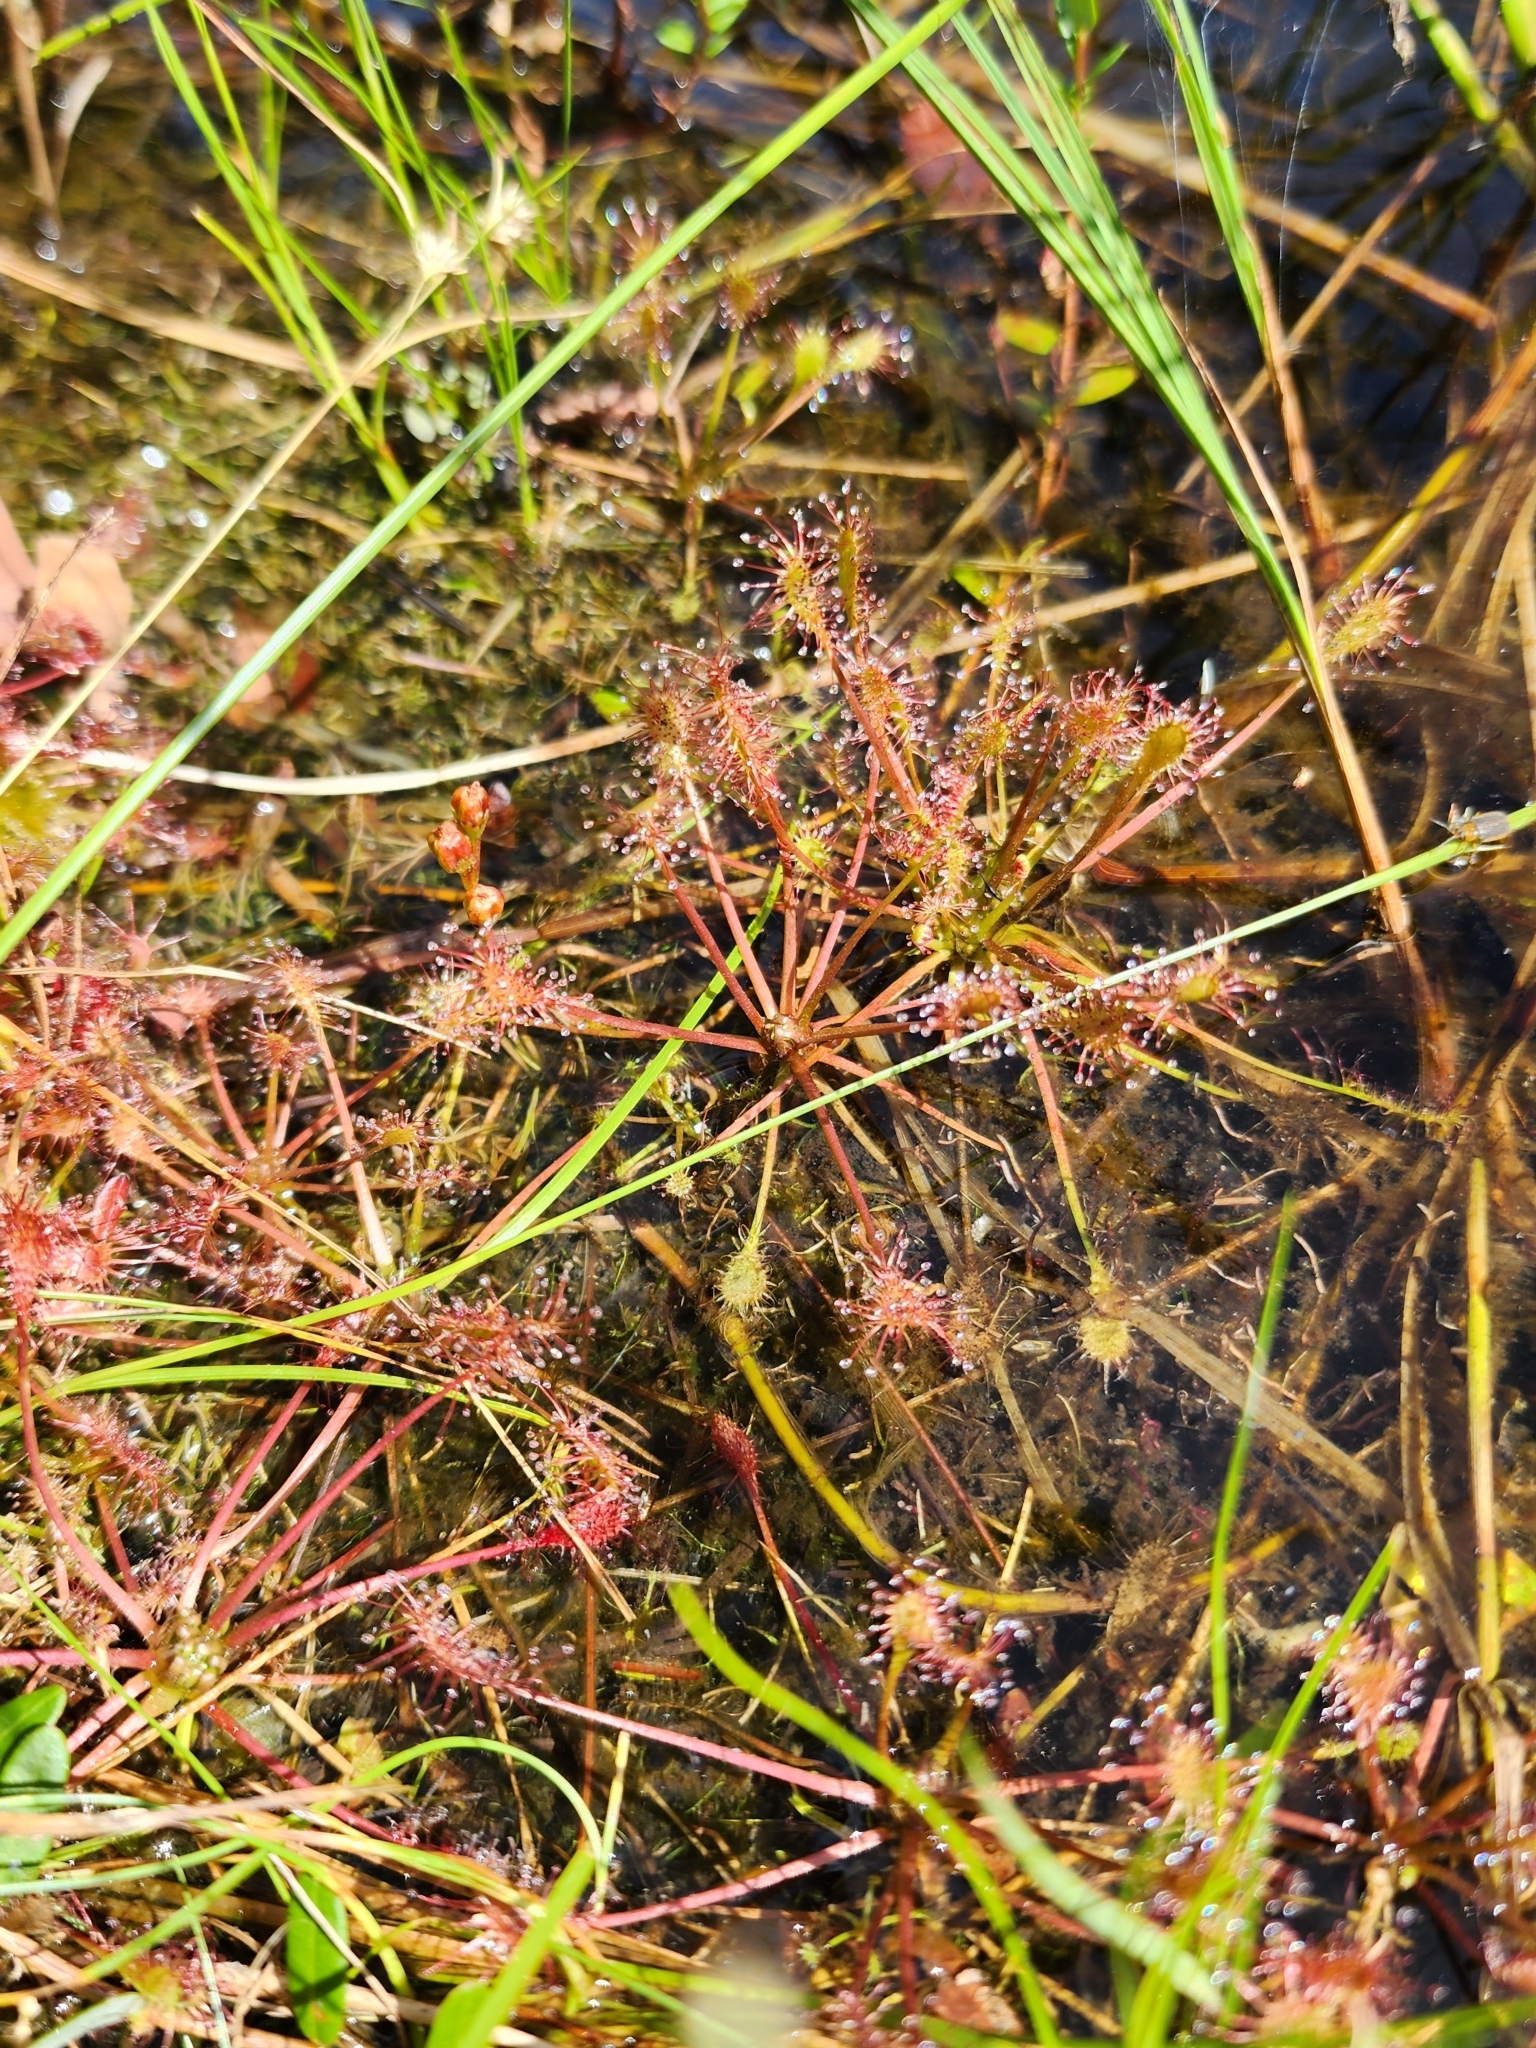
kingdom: Plantae
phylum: Tracheophyta
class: Magnoliopsida
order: Caryophyllales
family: Droseraceae
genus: Drosera
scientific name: Drosera intermedia
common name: Oblong-leaved sundew
